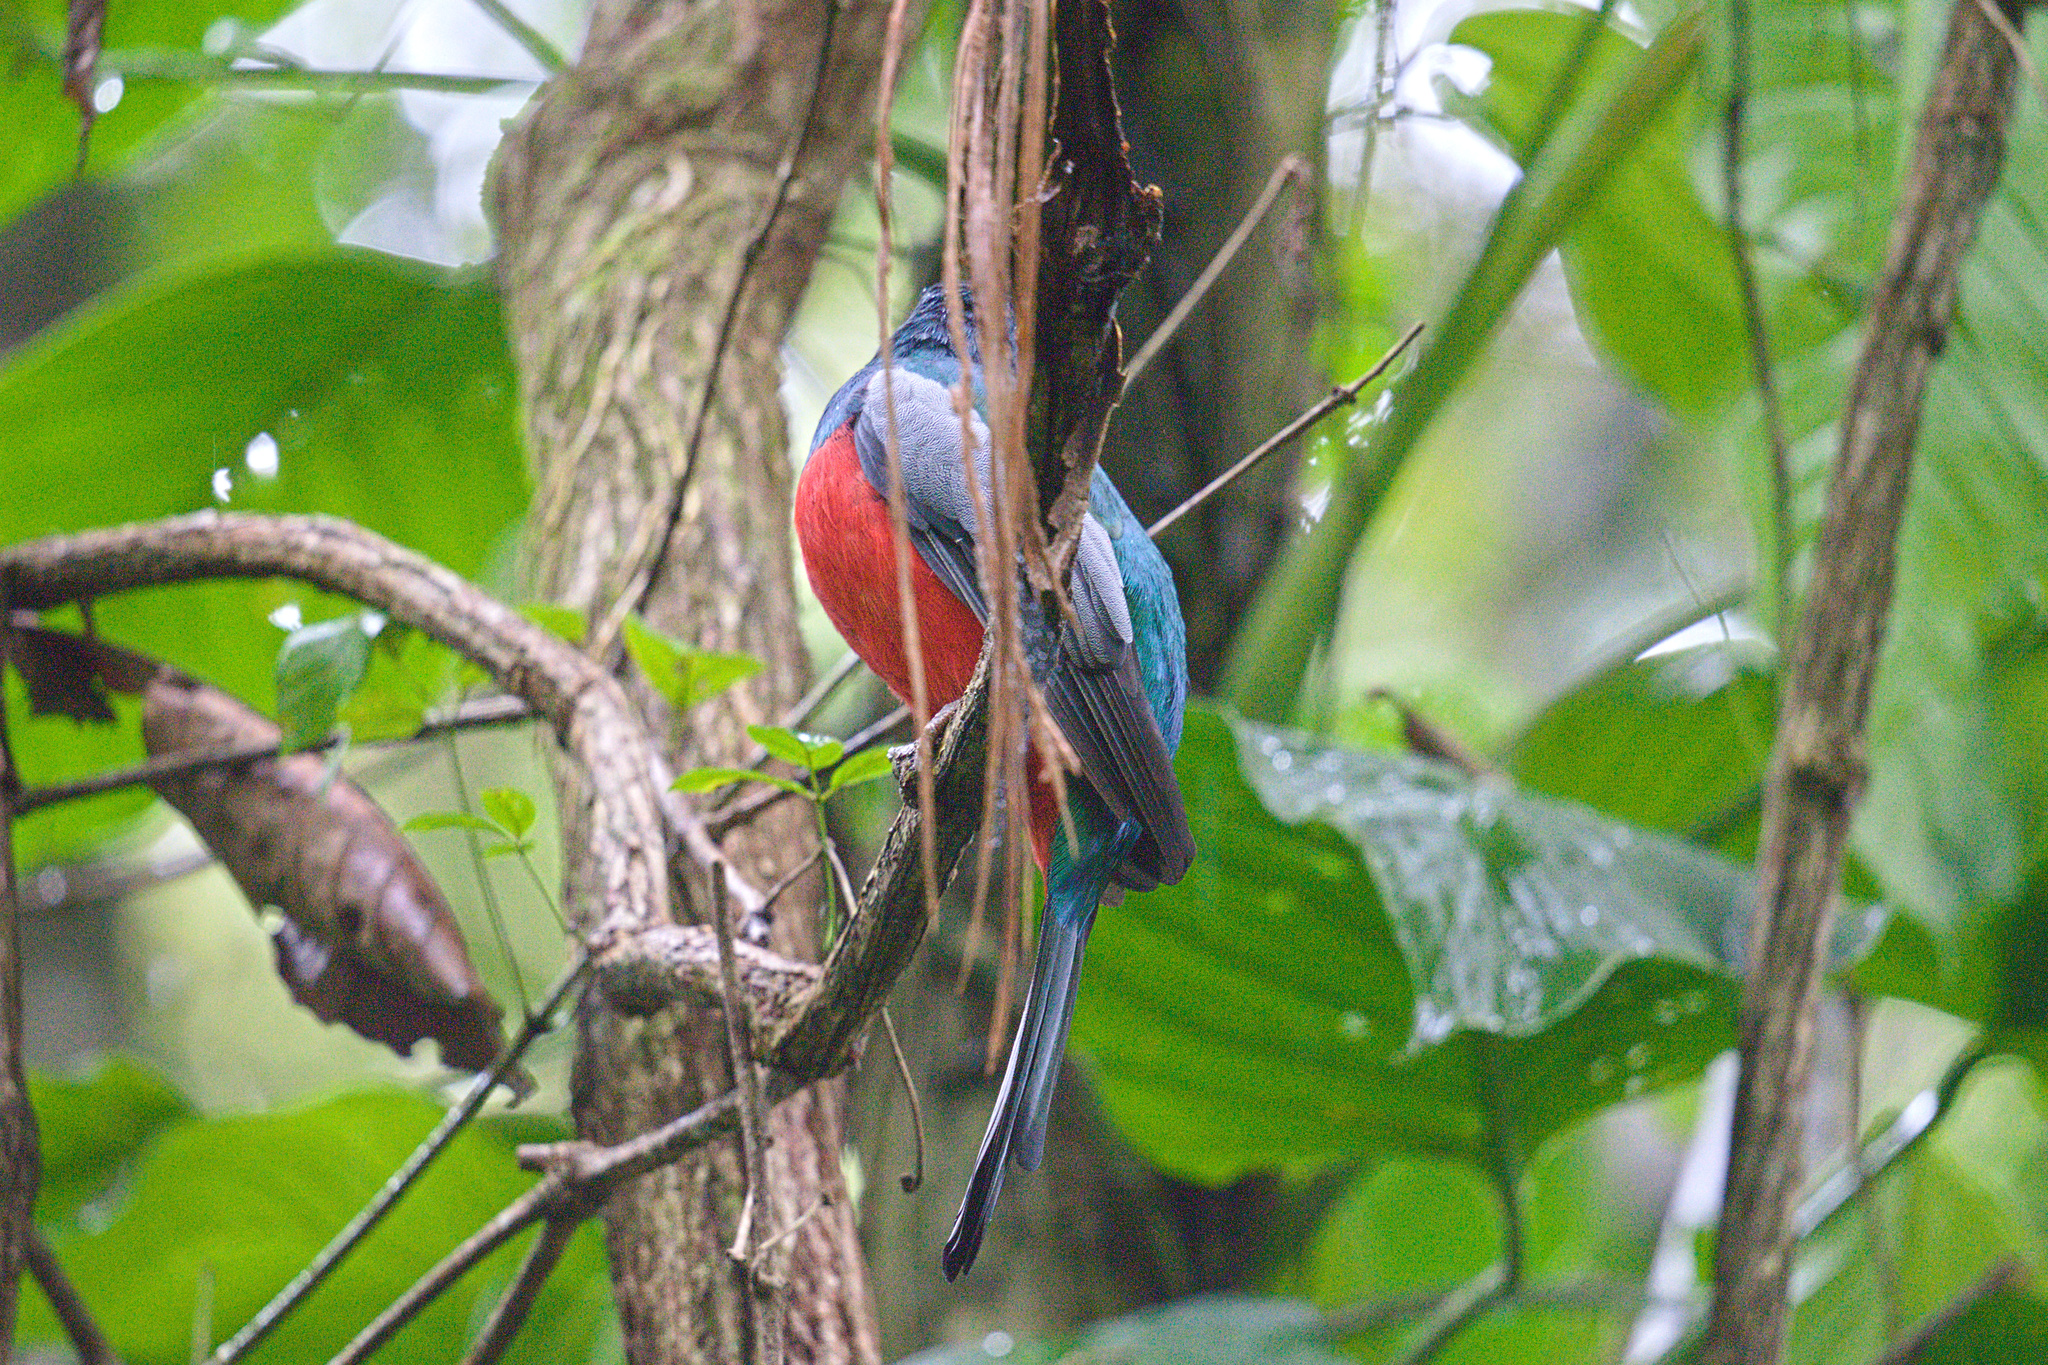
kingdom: Animalia
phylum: Chordata
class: Aves
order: Trogoniformes
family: Trogonidae
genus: Trogon
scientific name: Trogon massena
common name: Slaty-tailed trogon
